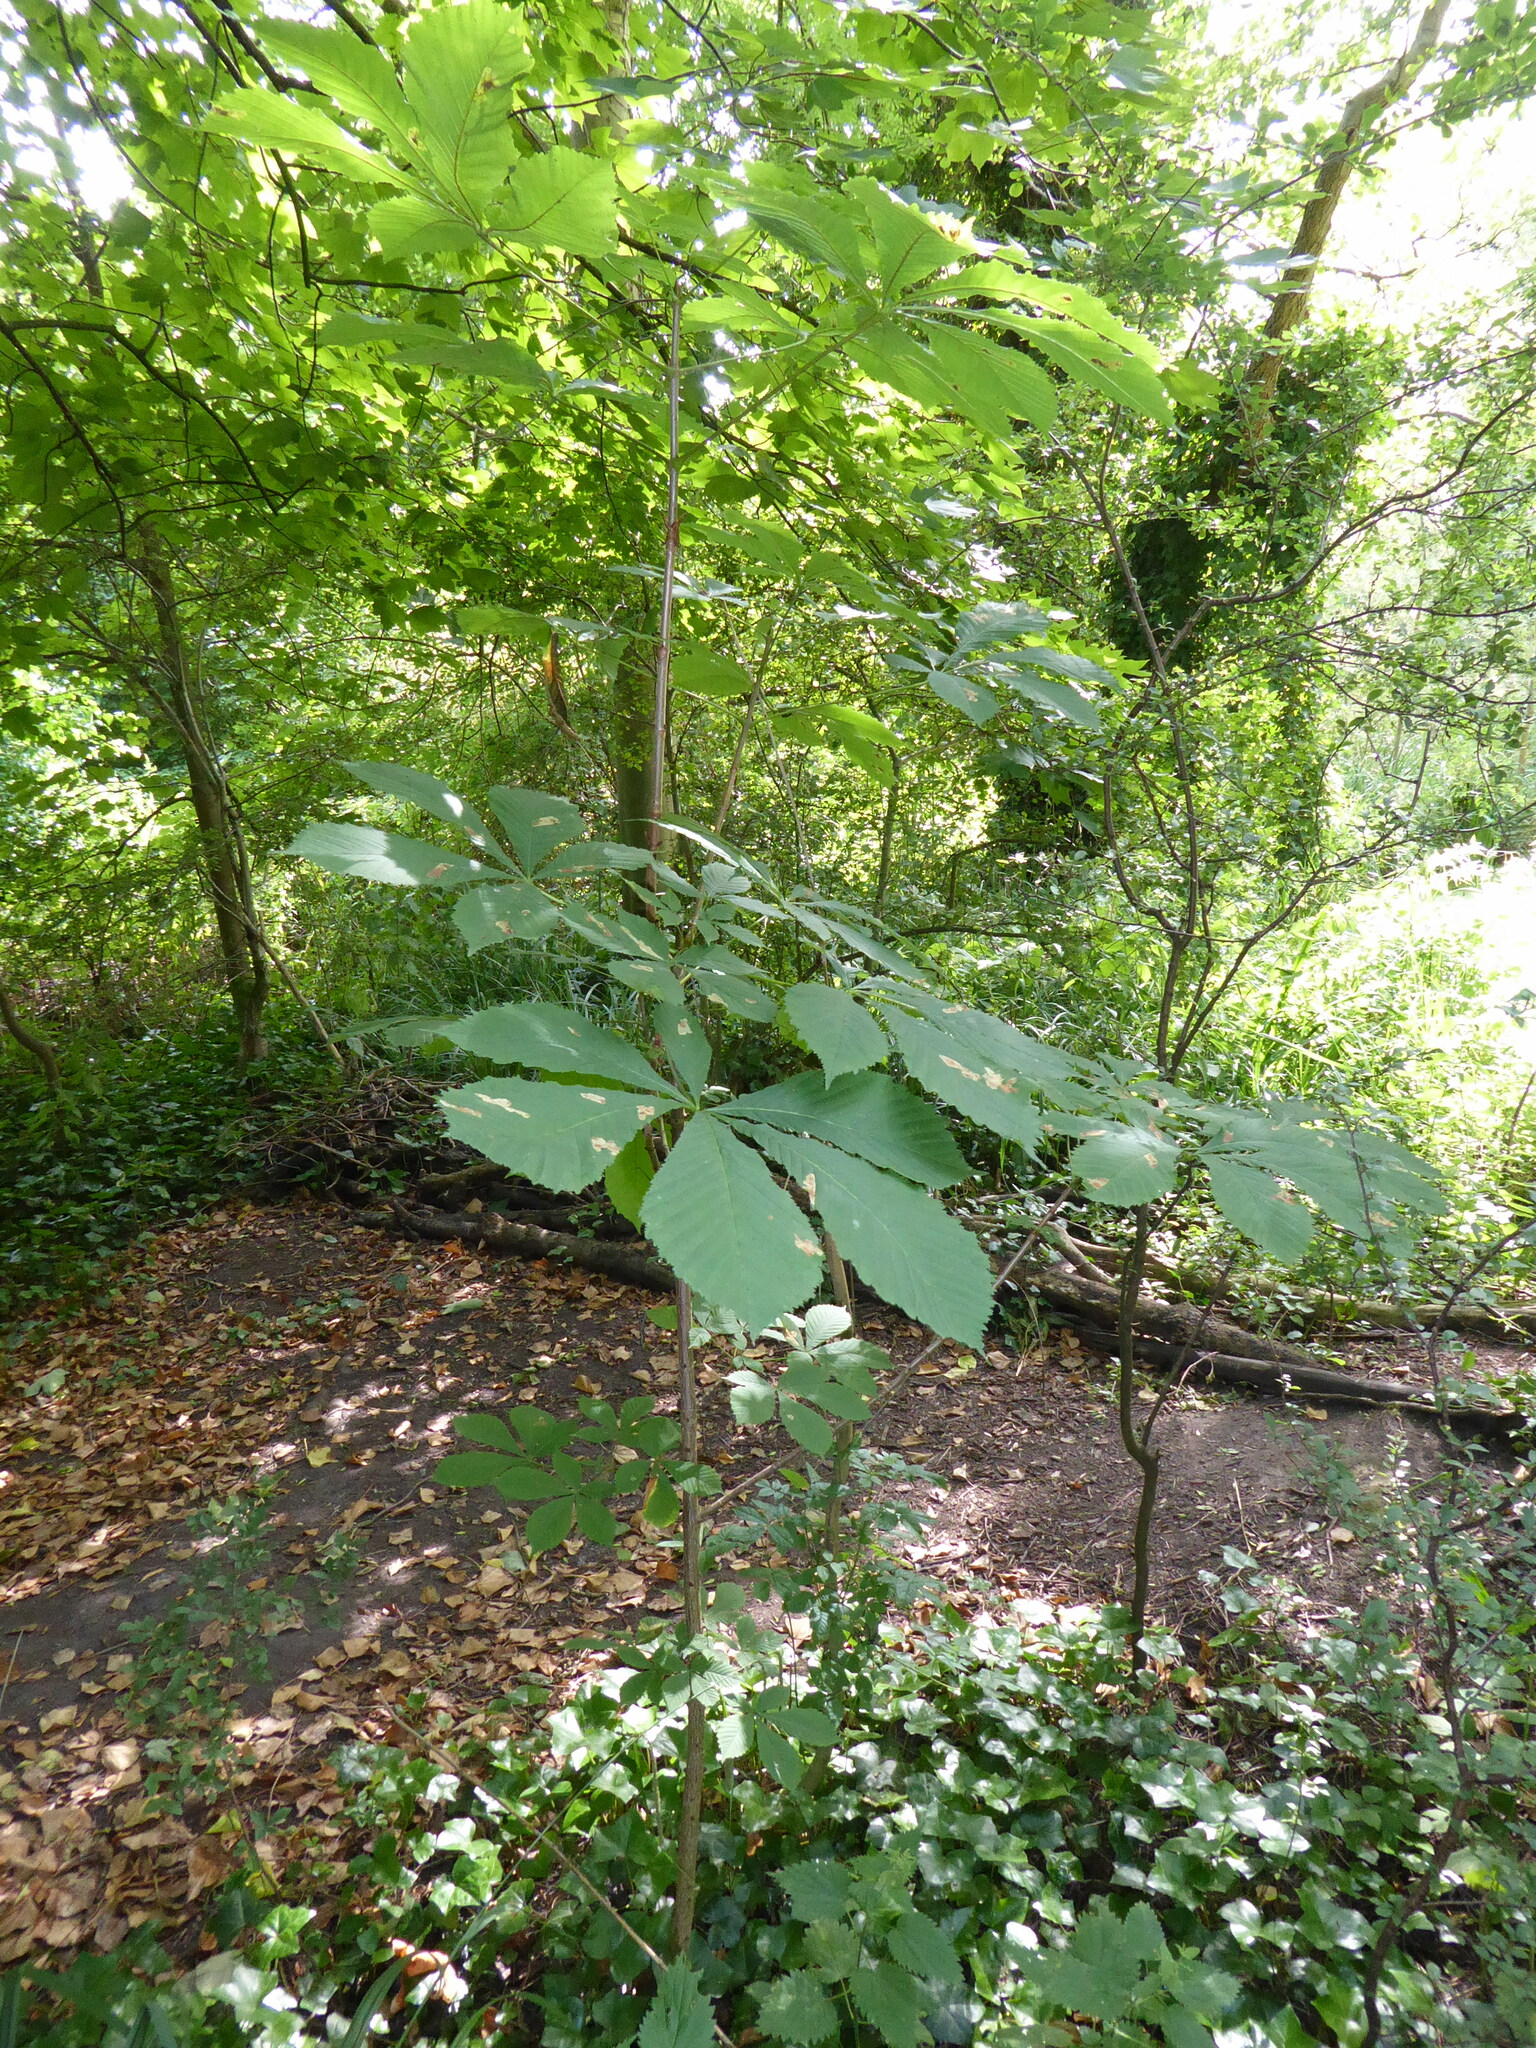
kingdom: Plantae
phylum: Tracheophyta
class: Magnoliopsida
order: Sapindales
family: Sapindaceae
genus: Aesculus
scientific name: Aesculus hippocastanum
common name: Horse-chestnut
